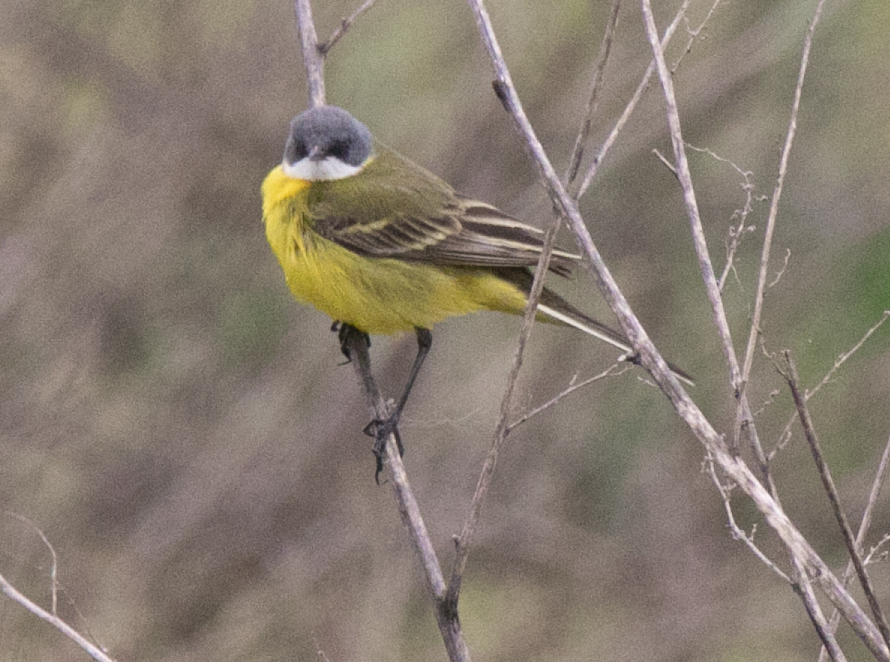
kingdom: Animalia
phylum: Chordata
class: Aves
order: Passeriformes
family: Motacillidae
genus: Motacilla
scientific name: Motacilla flava
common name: Western yellow wagtail
